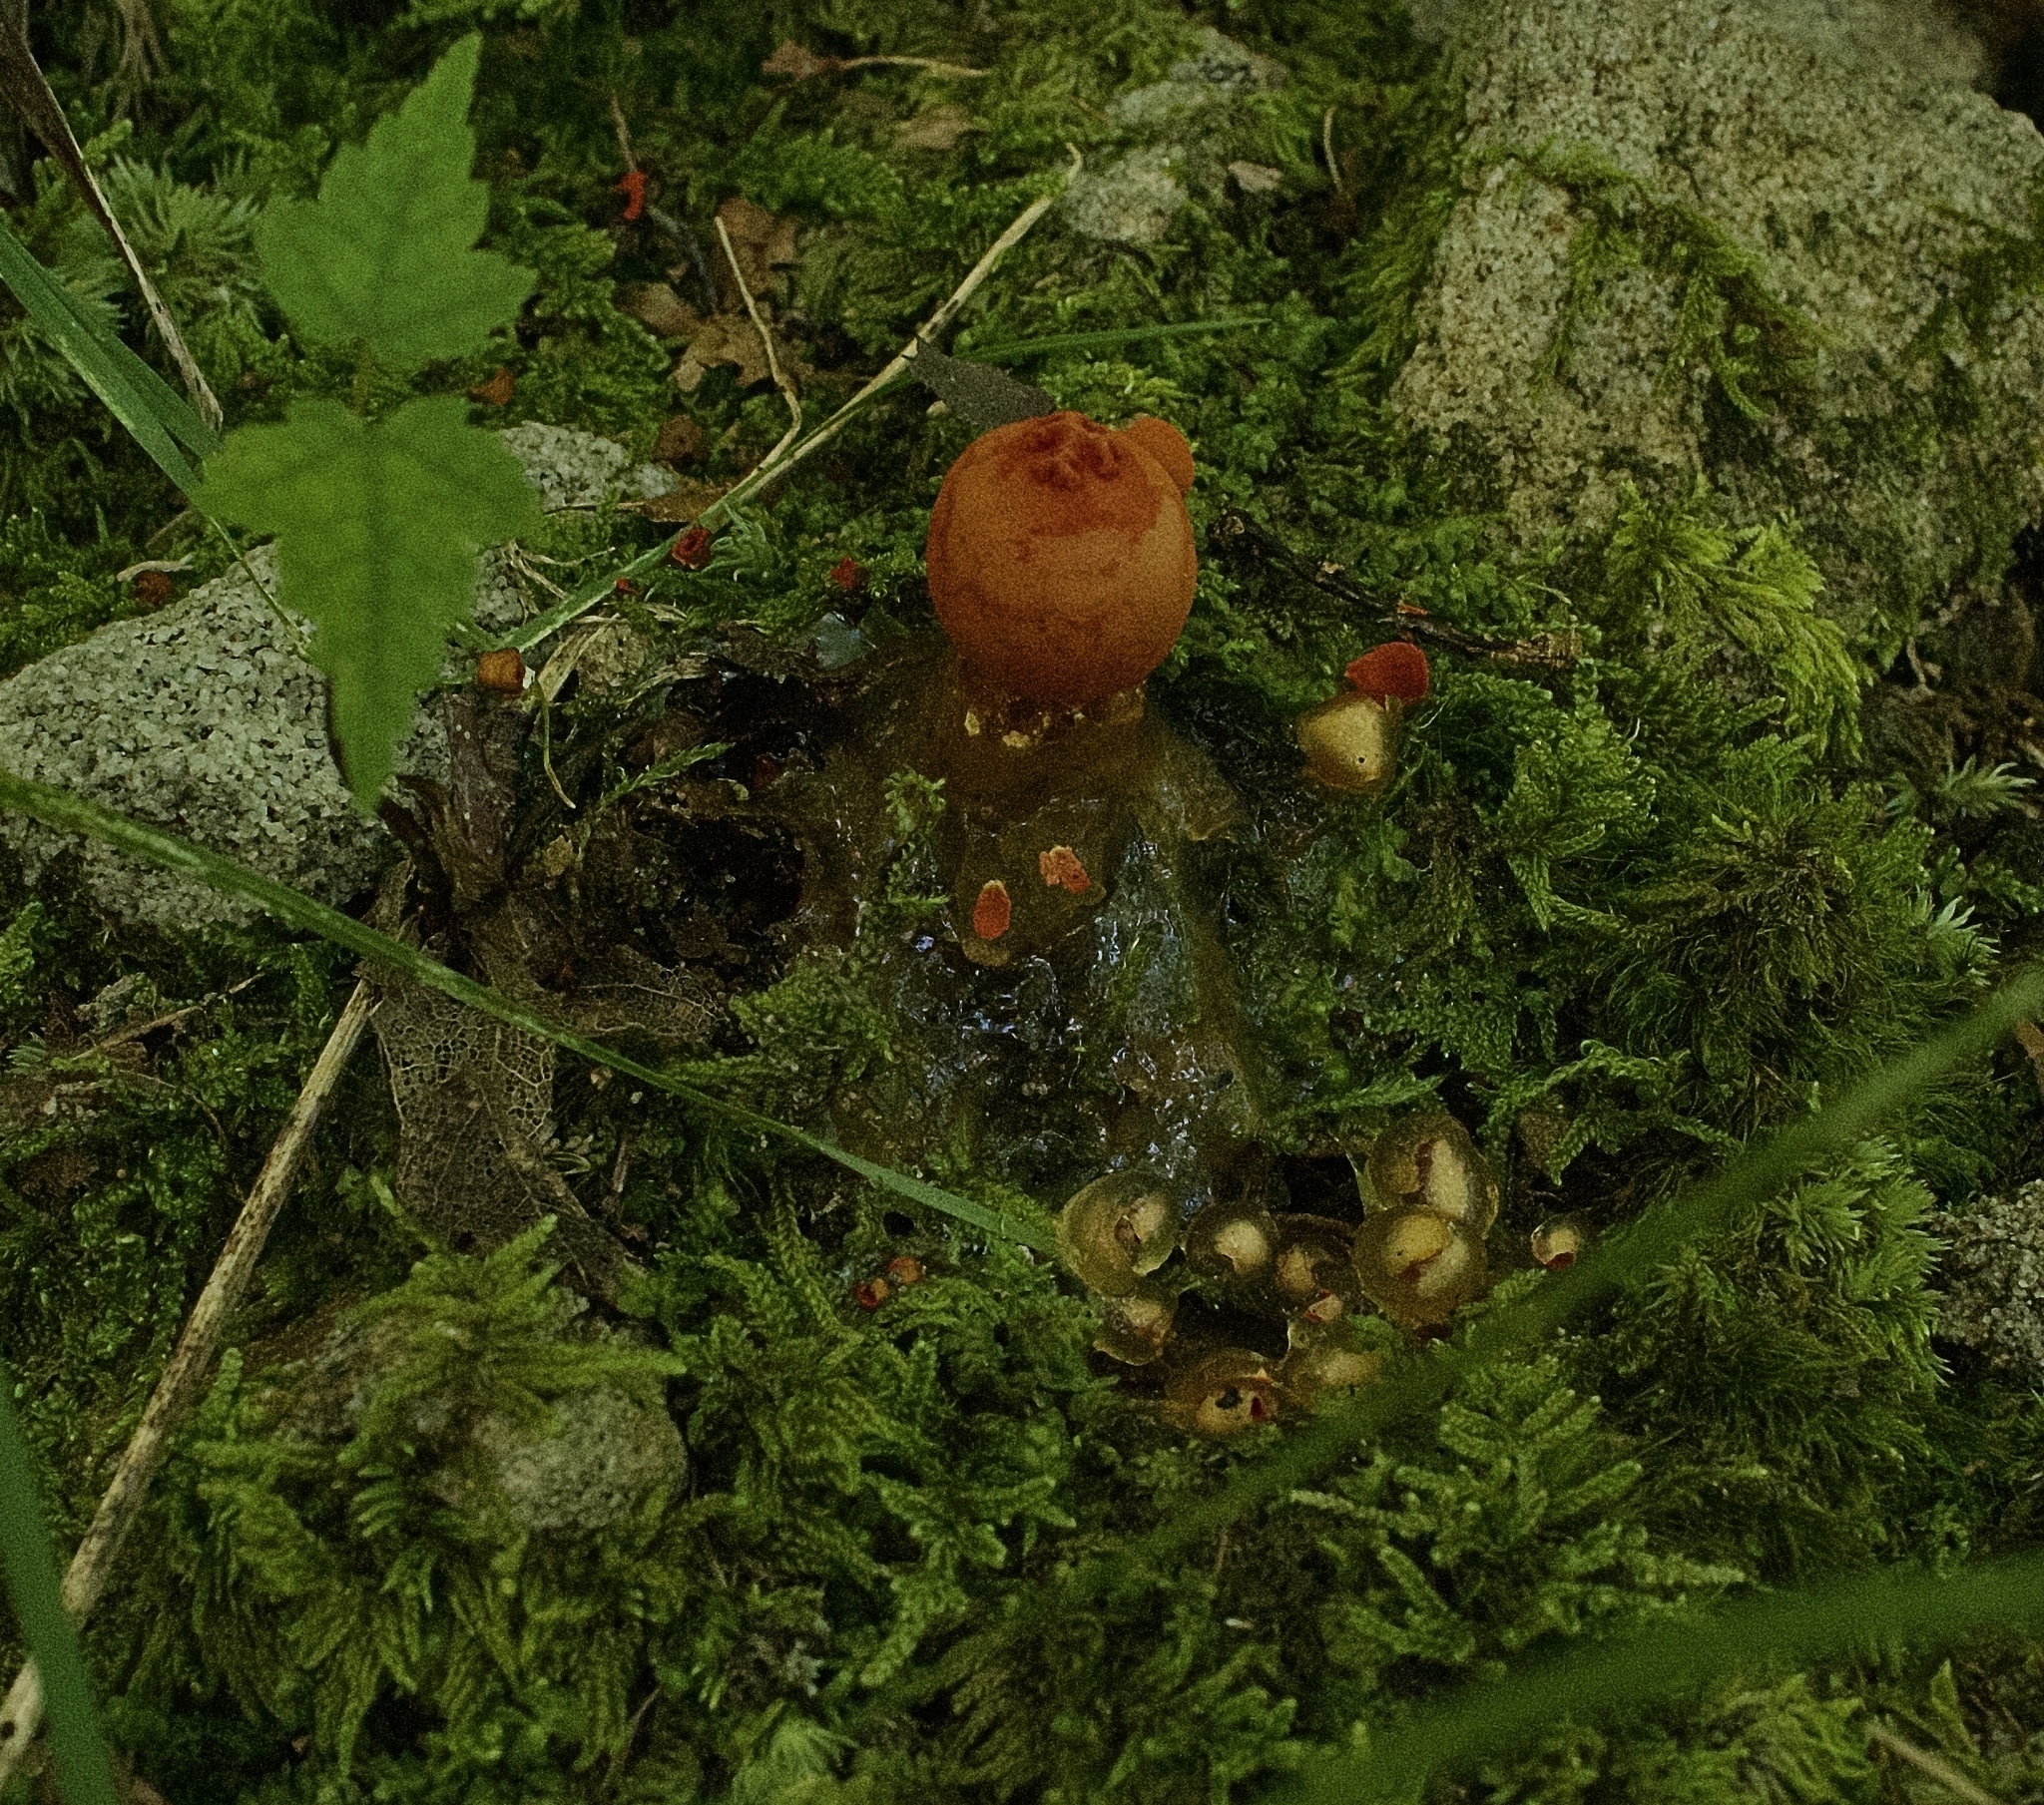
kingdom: Fungi
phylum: Basidiomycota
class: Agaricomycetes
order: Boletales
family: Calostomataceae
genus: Calostoma
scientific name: Calostoma cinnabarinum
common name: Stalked puffball-in-aspic
